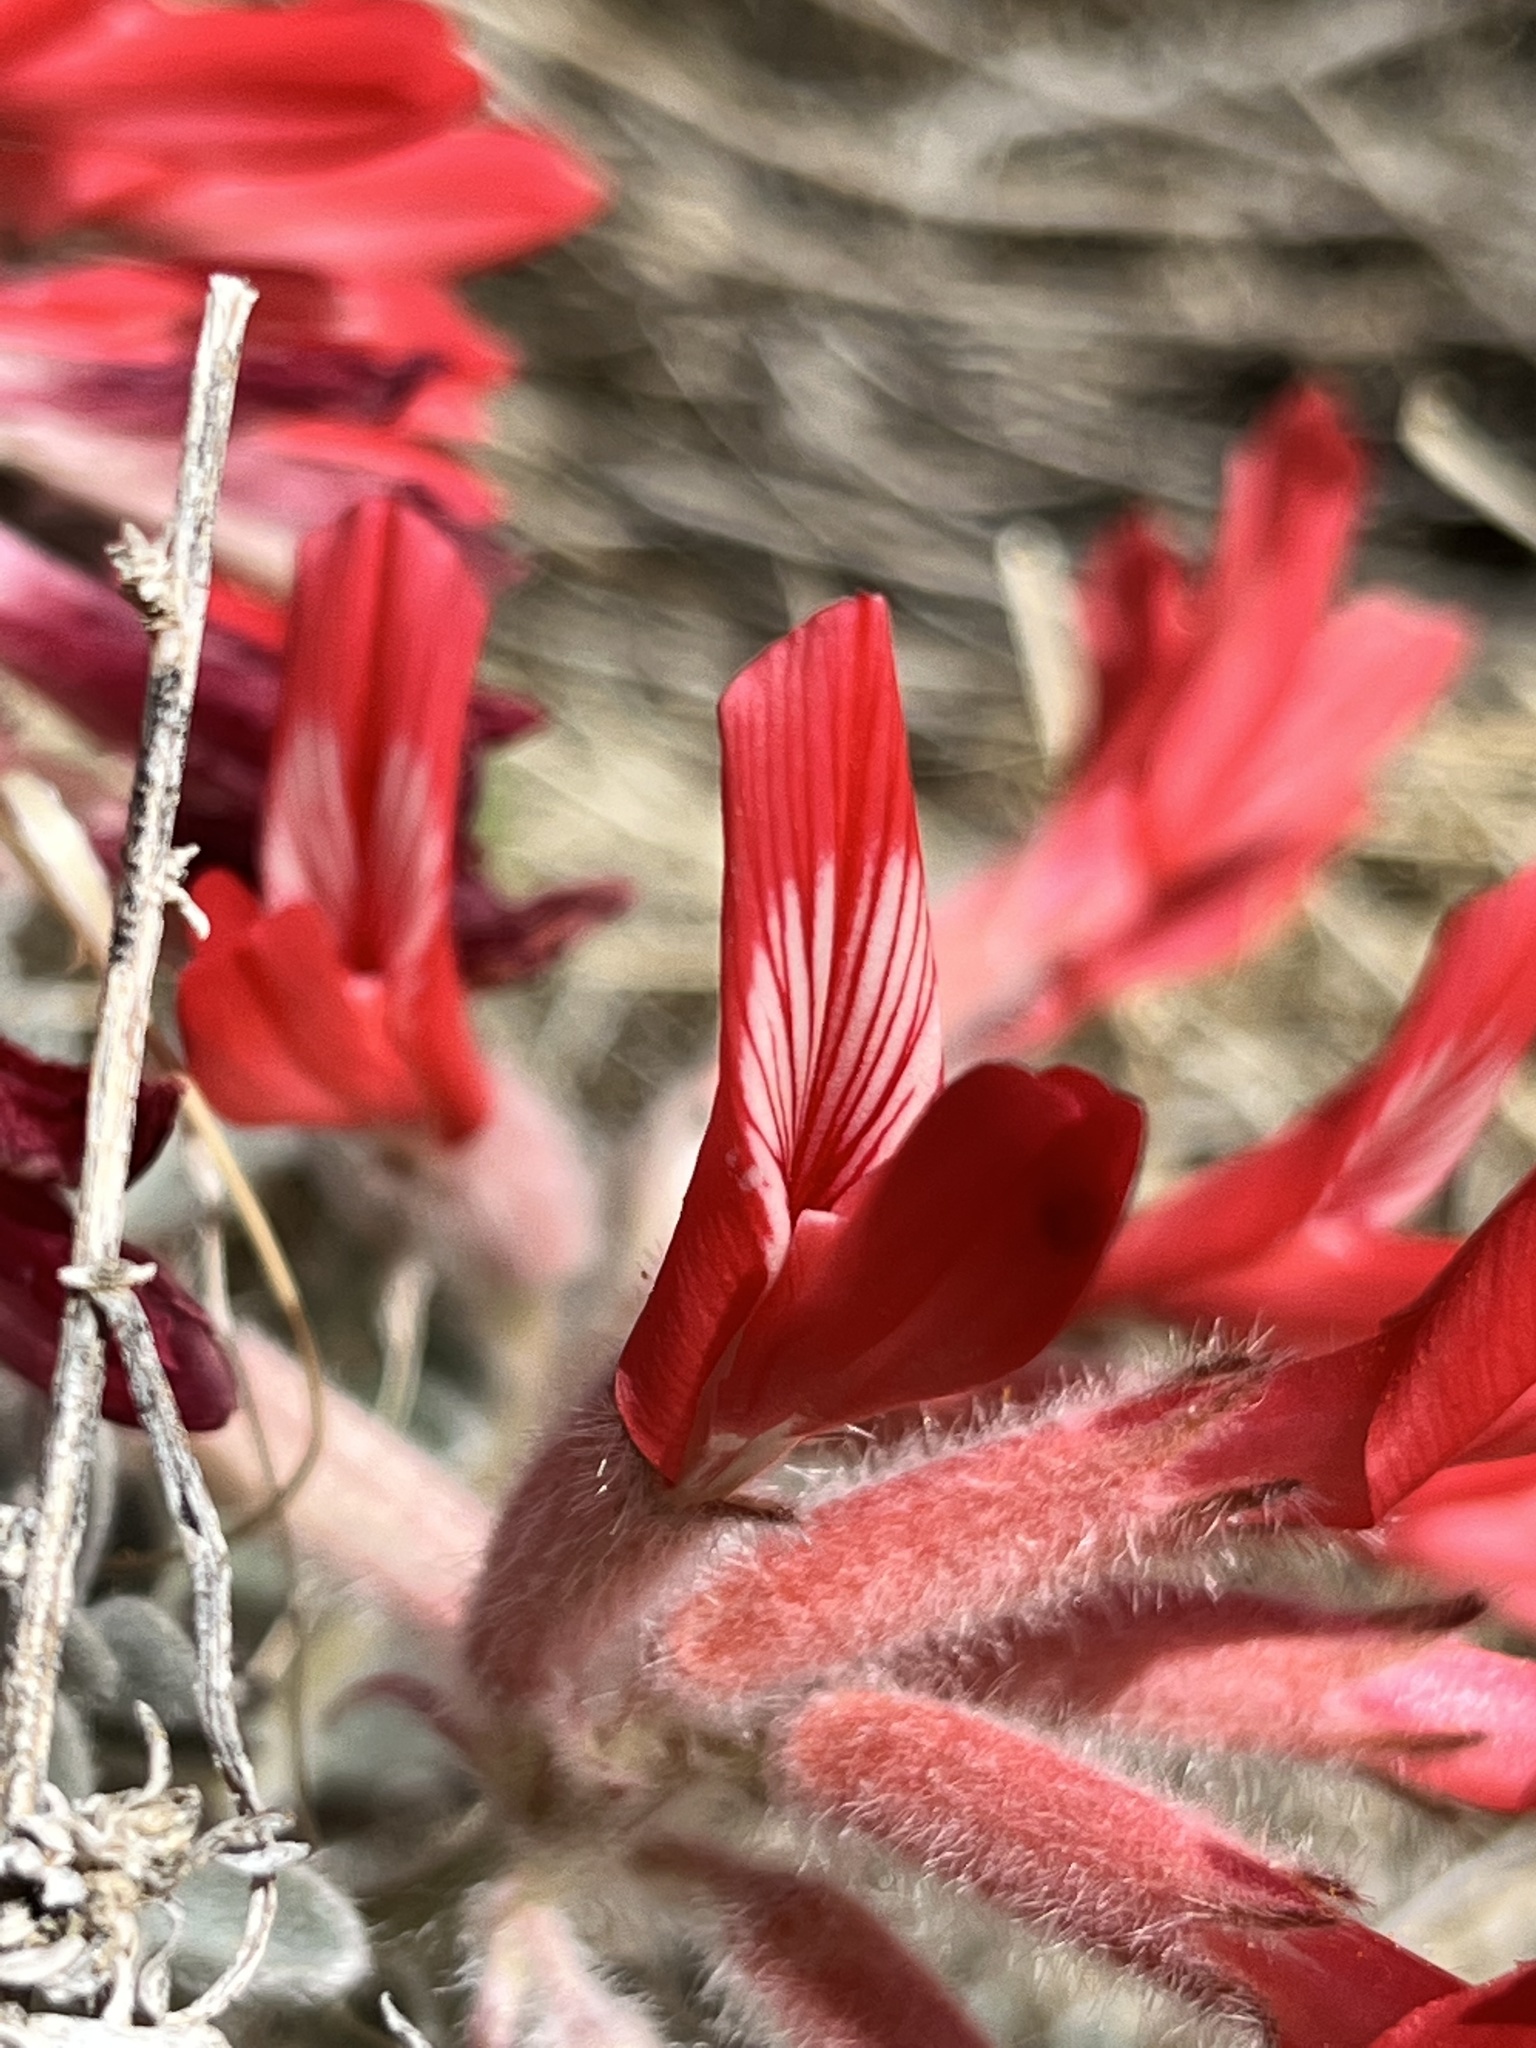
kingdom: Plantae
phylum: Tracheophyta
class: Magnoliopsida
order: Fabales
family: Fabaceae
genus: Astragalus
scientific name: Astragalus coccineus
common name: Scarlet milk-vetch
